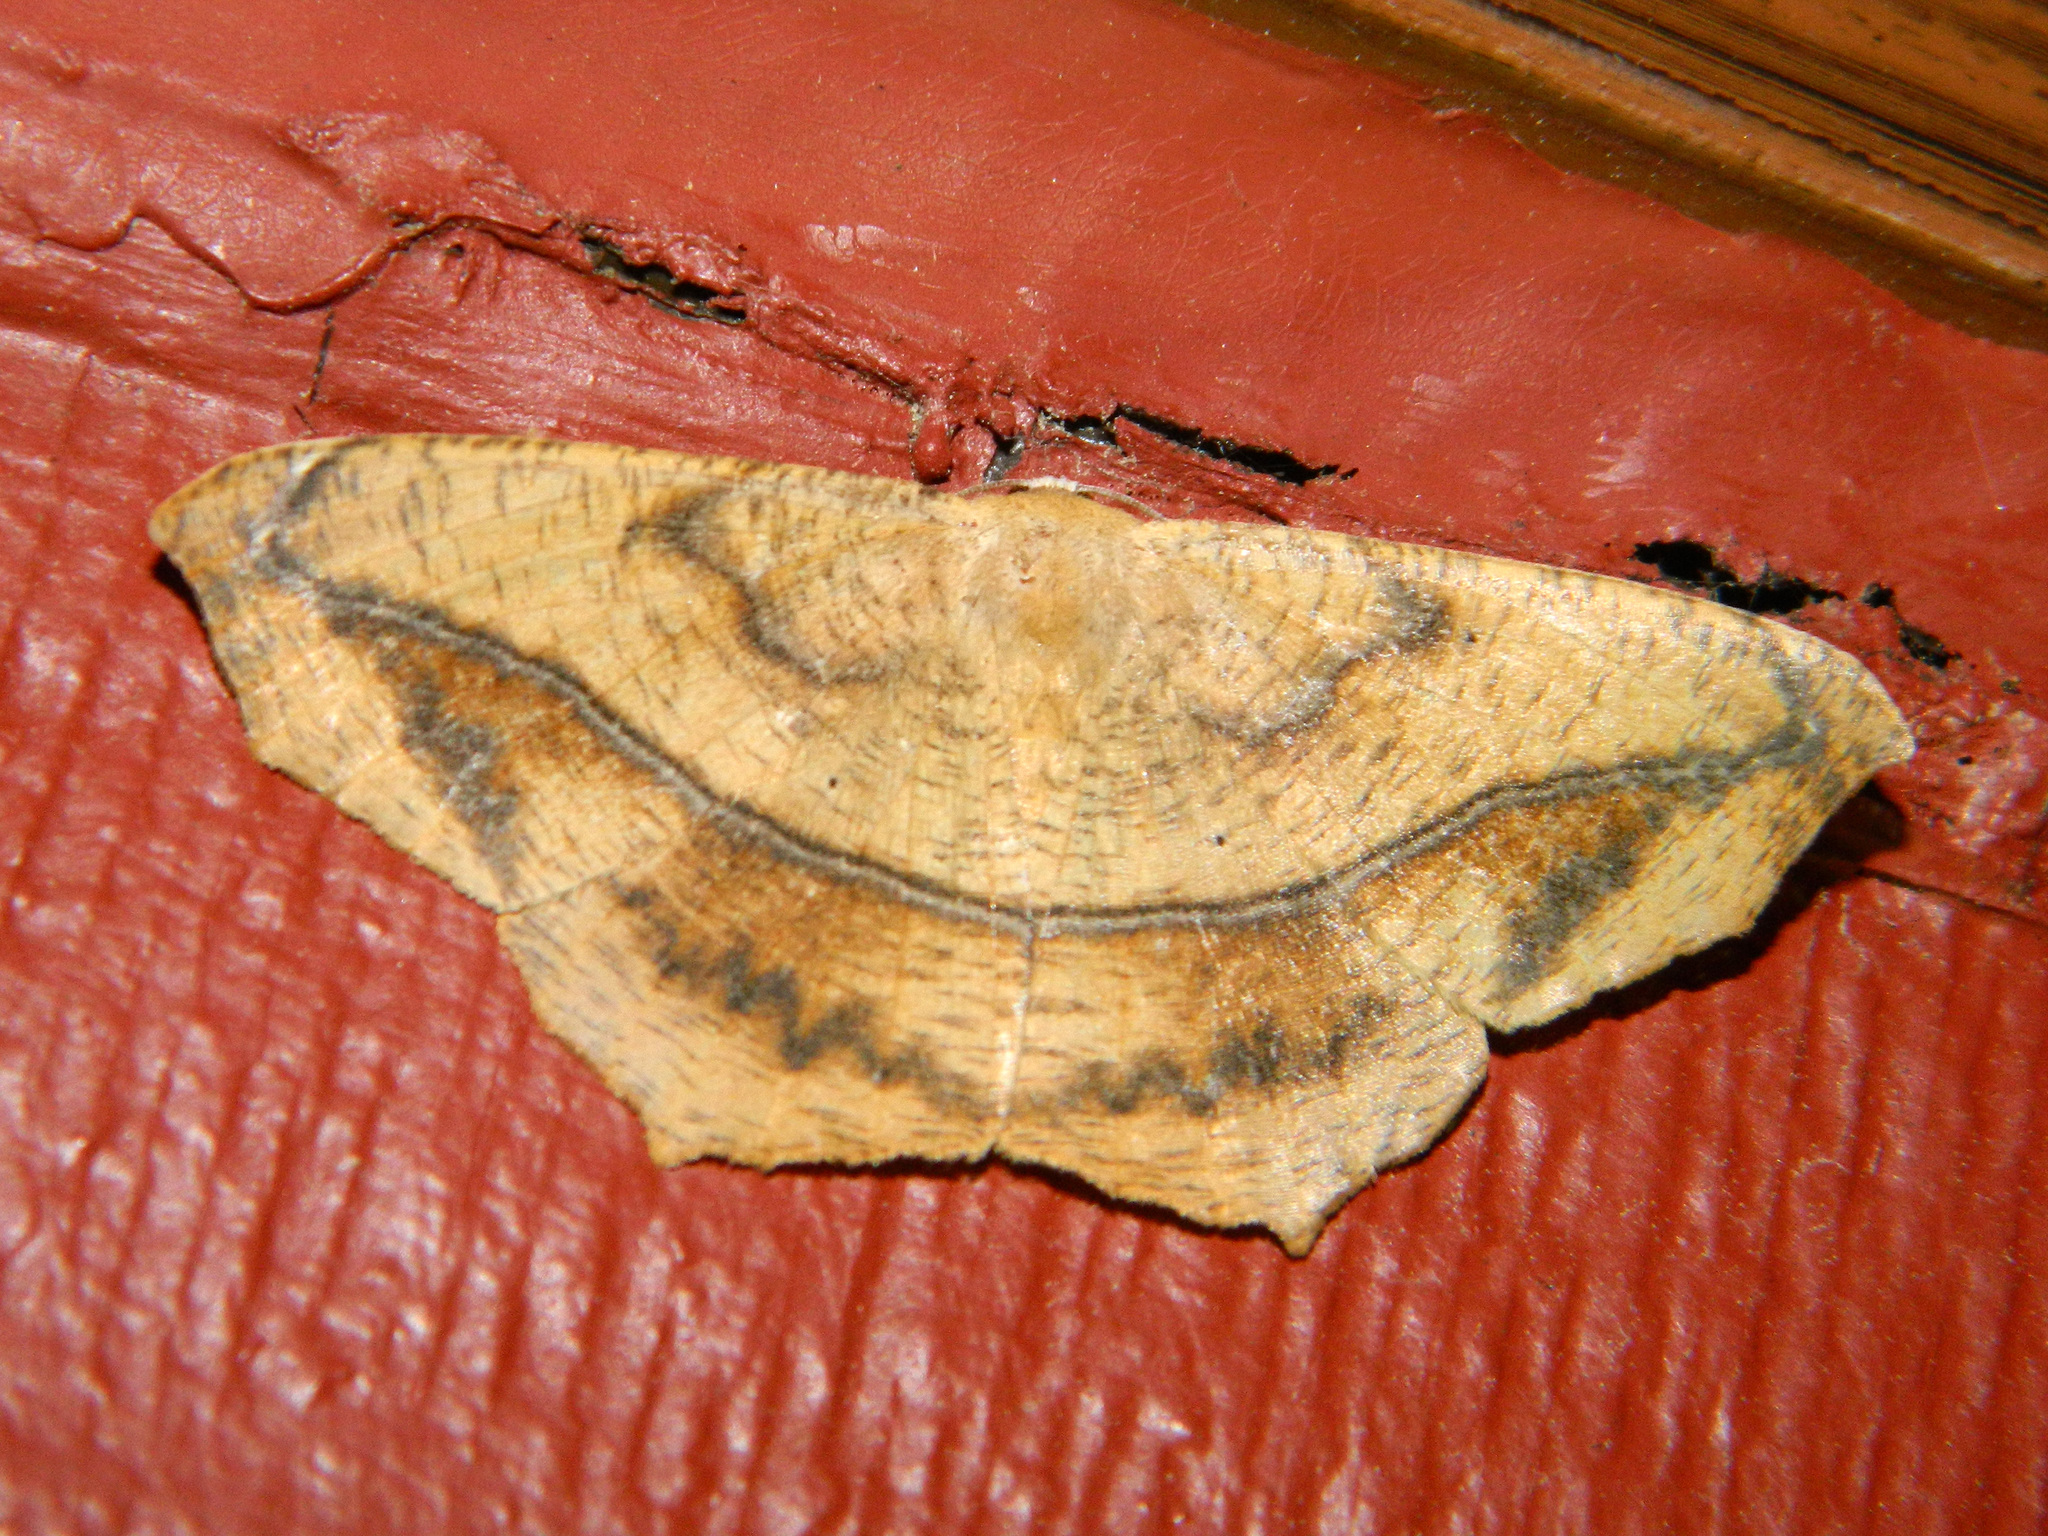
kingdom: Animalia
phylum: Arthropoda
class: Insecta
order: Lepidoptera
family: Geometridae
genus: Prochoerodes
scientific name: Prochoerodes lineola
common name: Large maple spanworm
